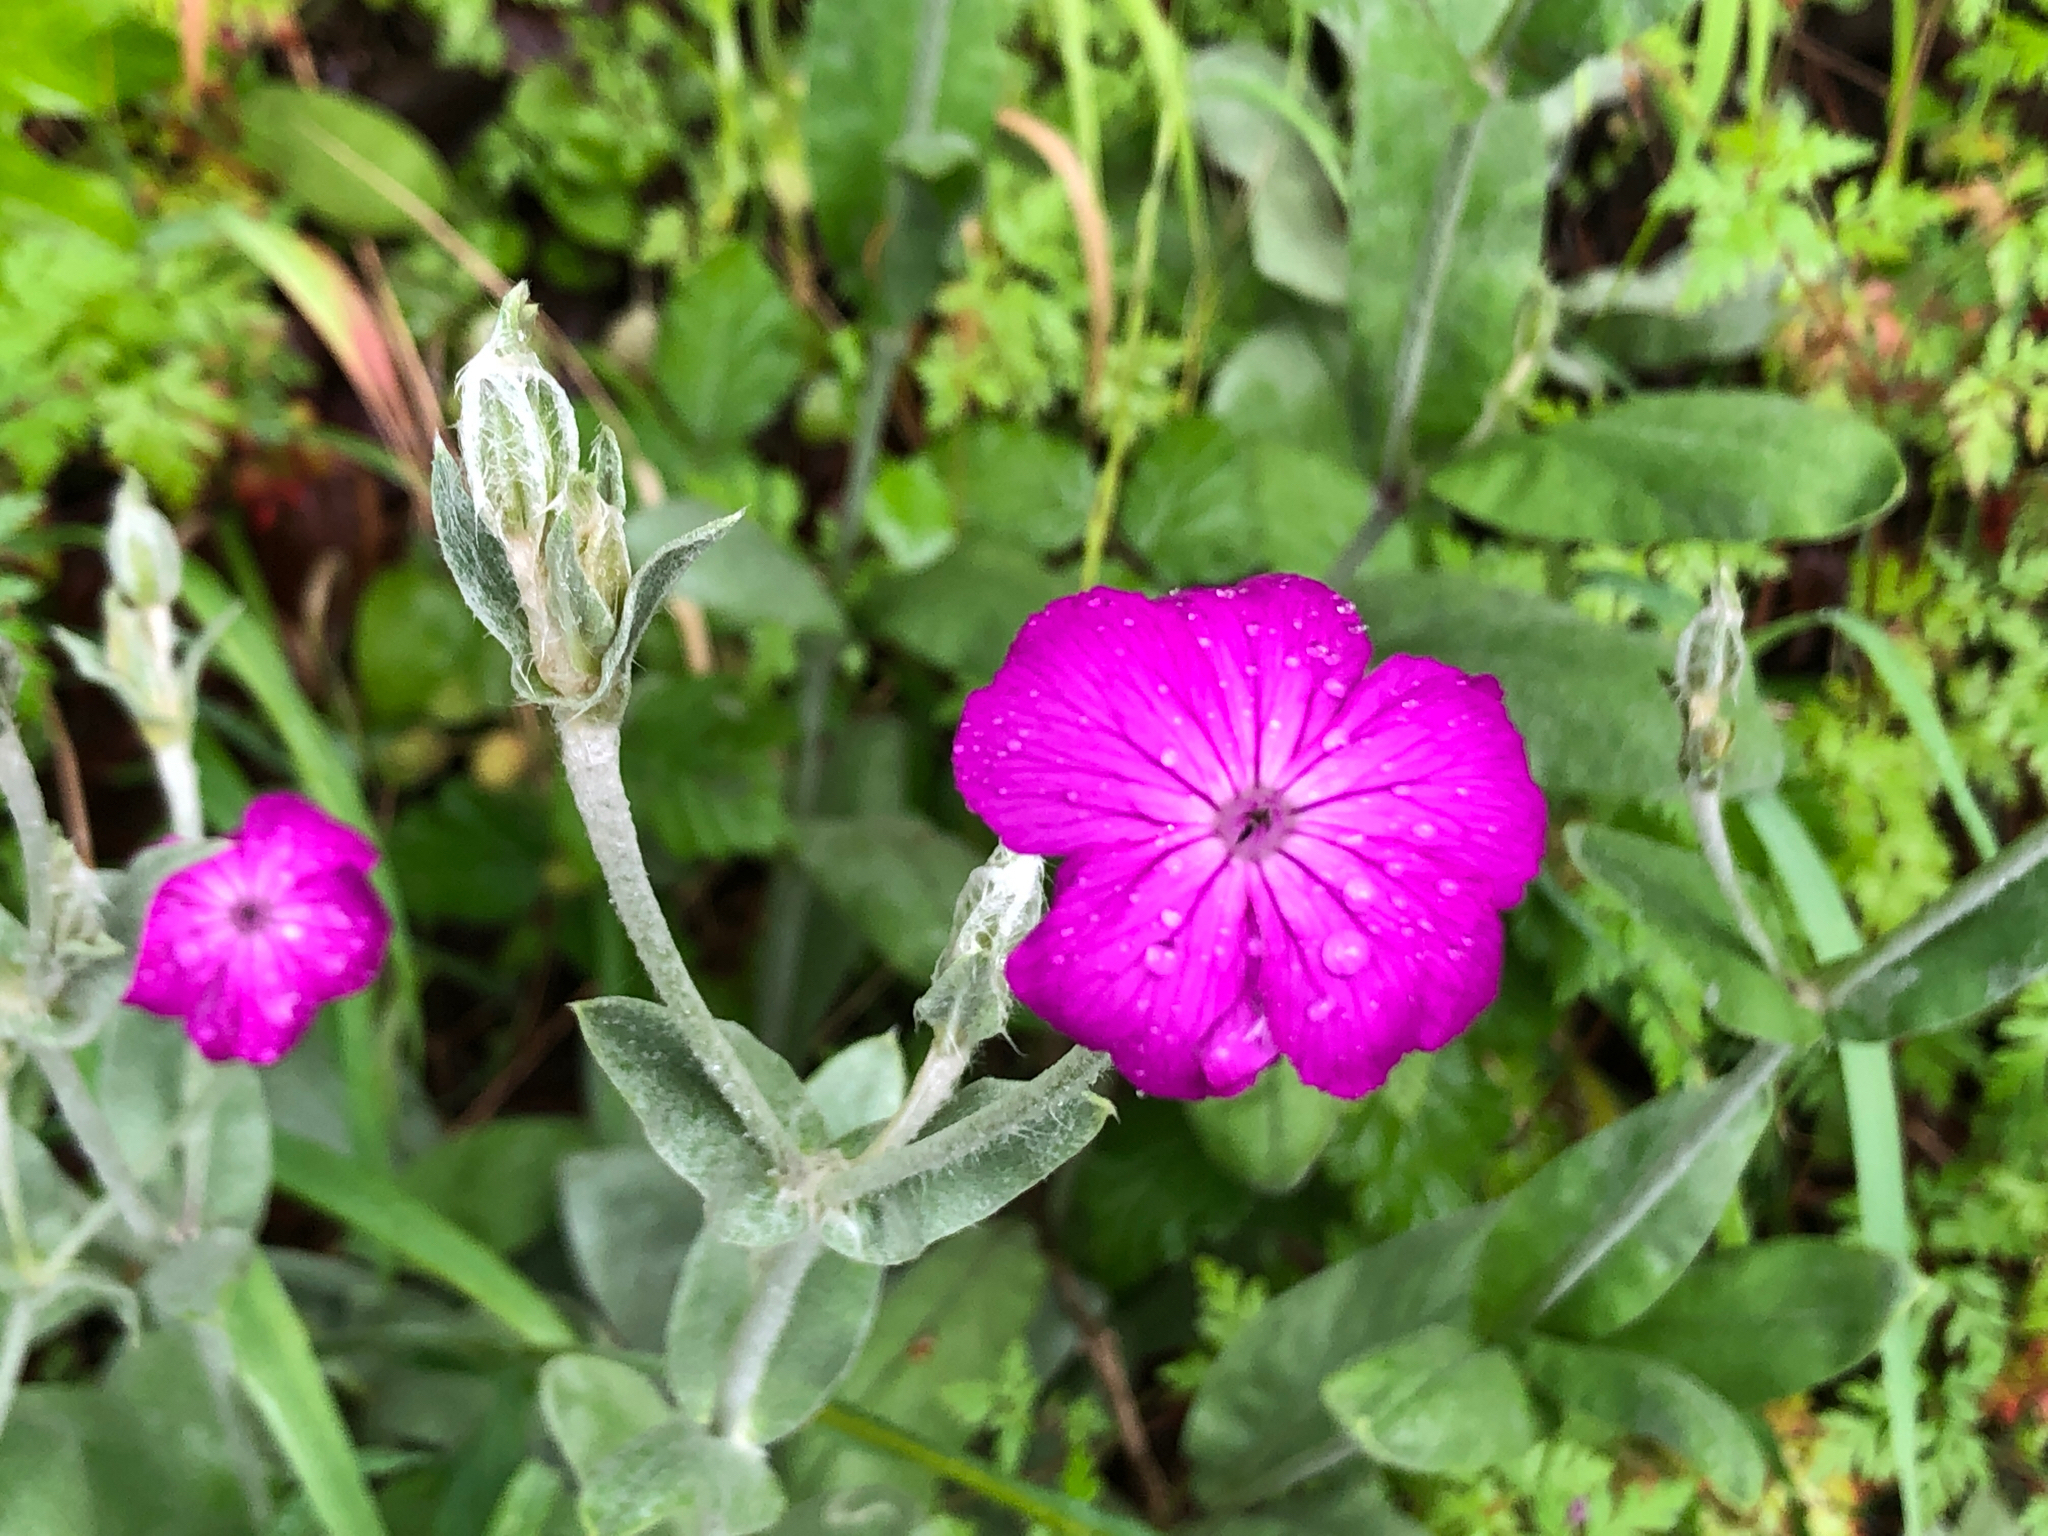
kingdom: Plantae
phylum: Tracheophyta
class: Magnoliopsida
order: Caryophyllales
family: Caryophyllaceae
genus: Silene
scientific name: Silene coronaria
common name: Rose campion
